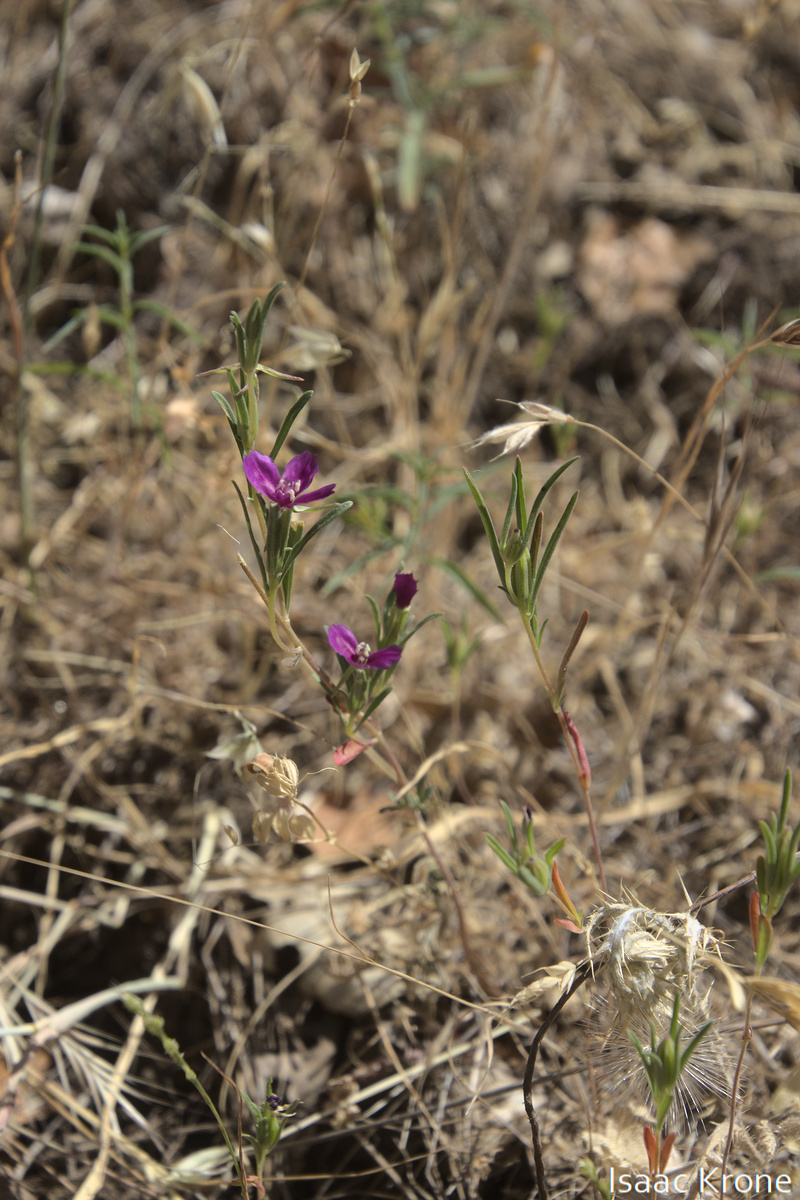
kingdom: Plantae
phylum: Tracheophyta
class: Magnoliopsida
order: Myrtales
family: Onagraceae
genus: Clarkia
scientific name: Clarkia purpurea
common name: Purple clarkia
